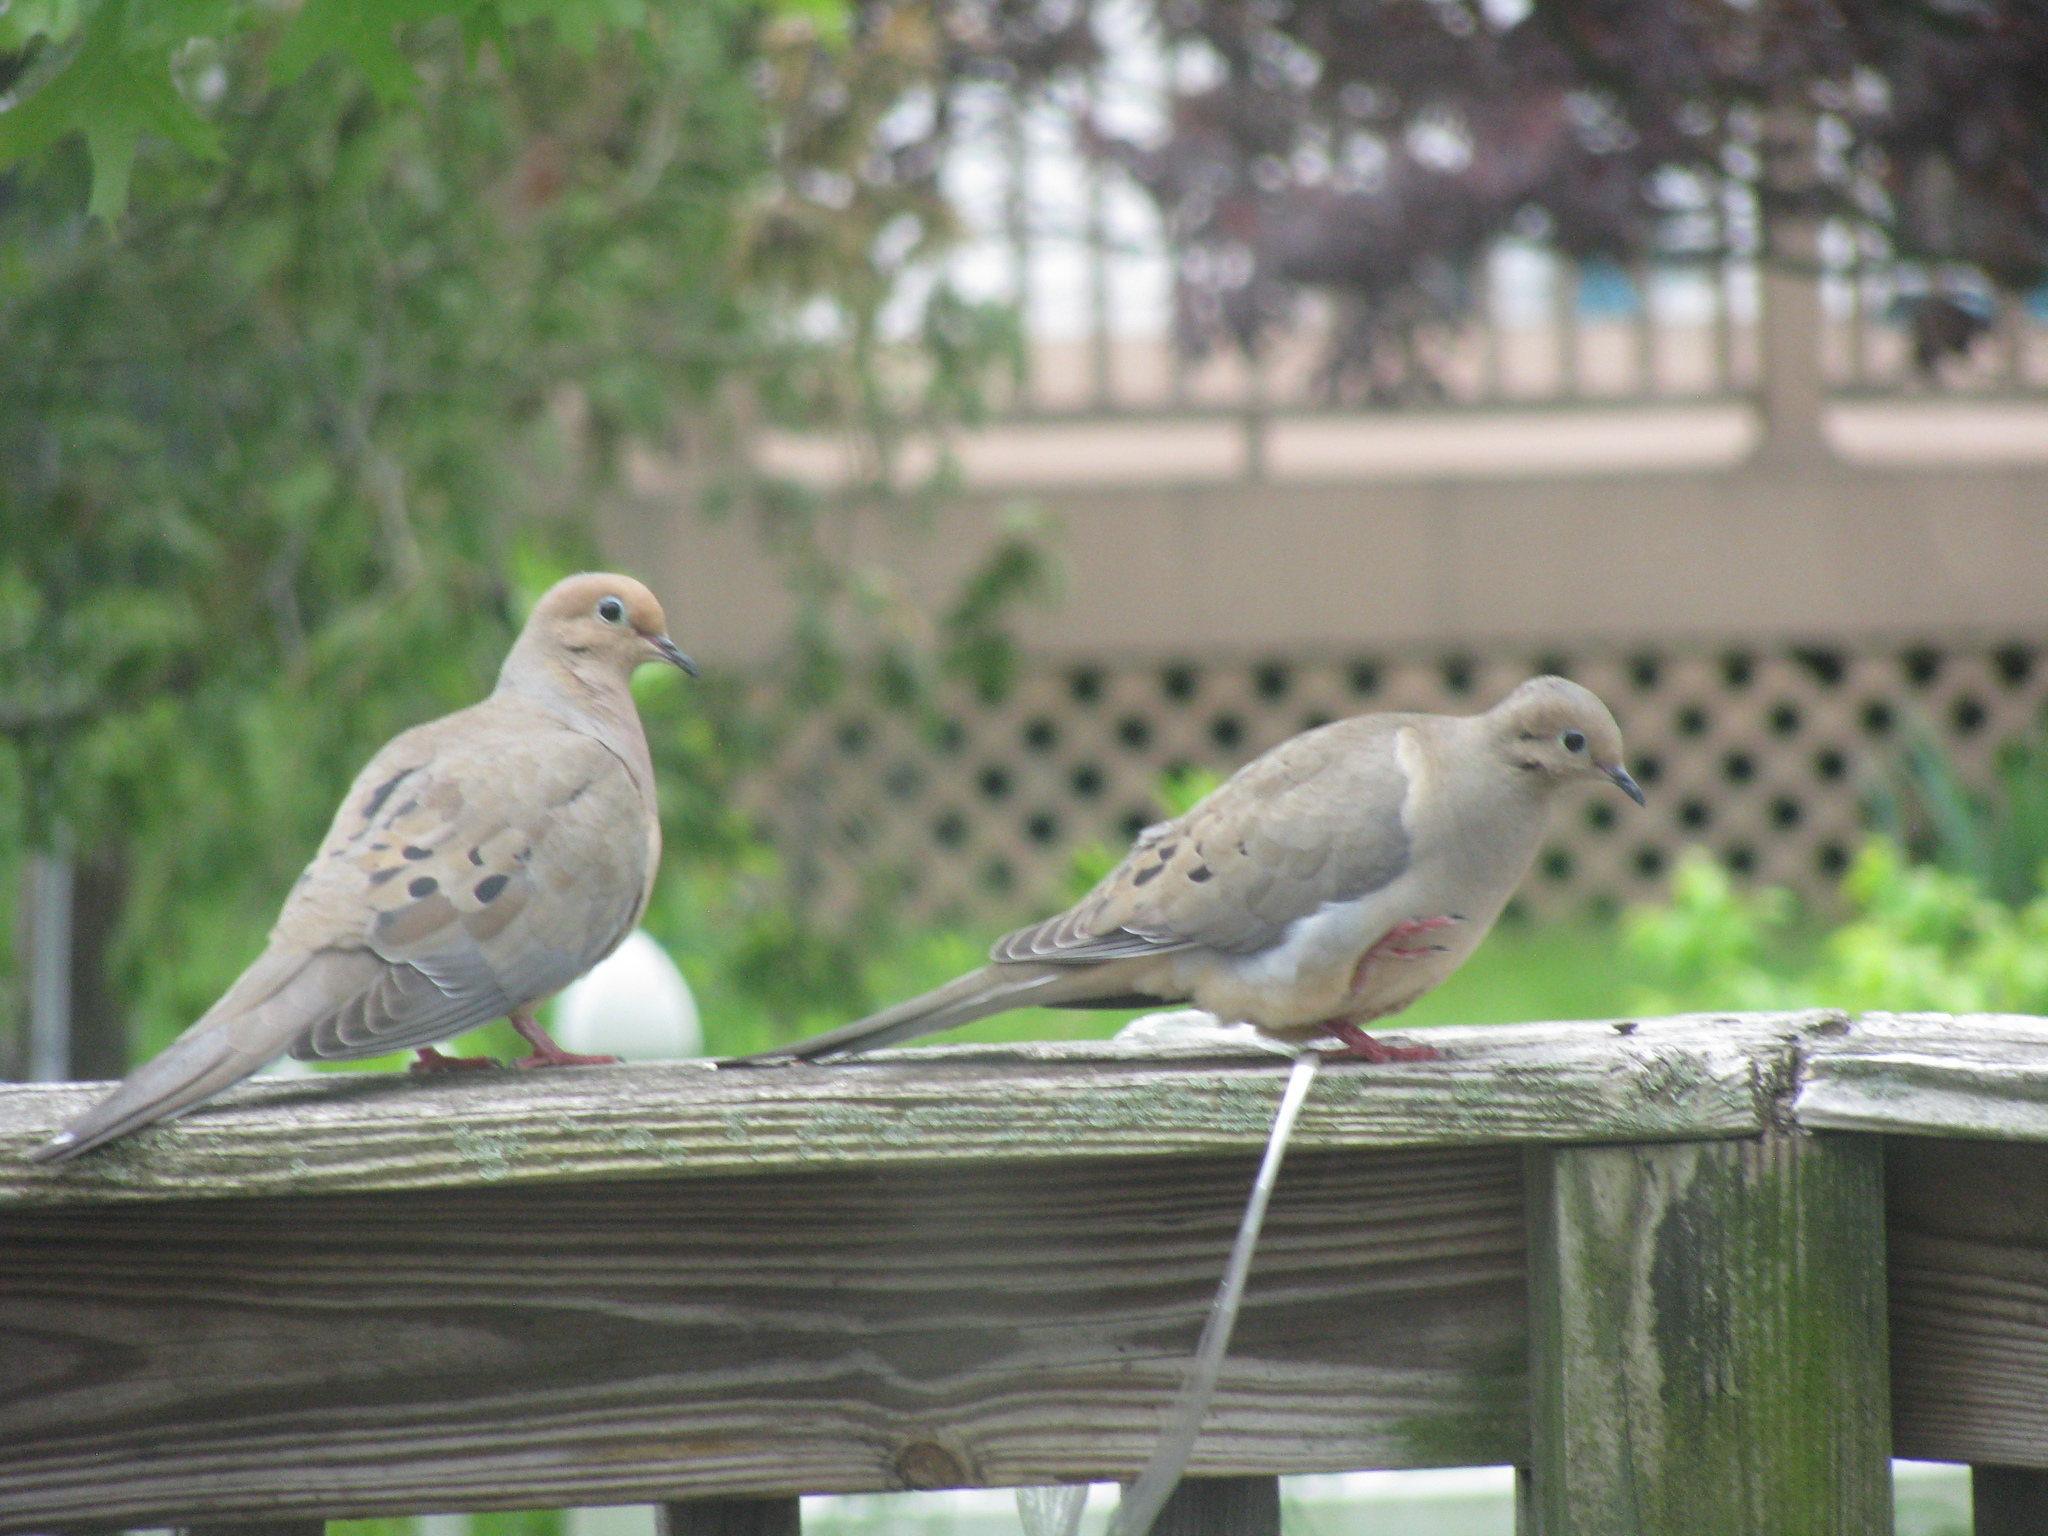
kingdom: Animalia
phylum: Chordata
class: Aves
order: Columbiformes
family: Columbidae
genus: Zenaida
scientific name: Zenaida macroura
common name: Mourning dove
